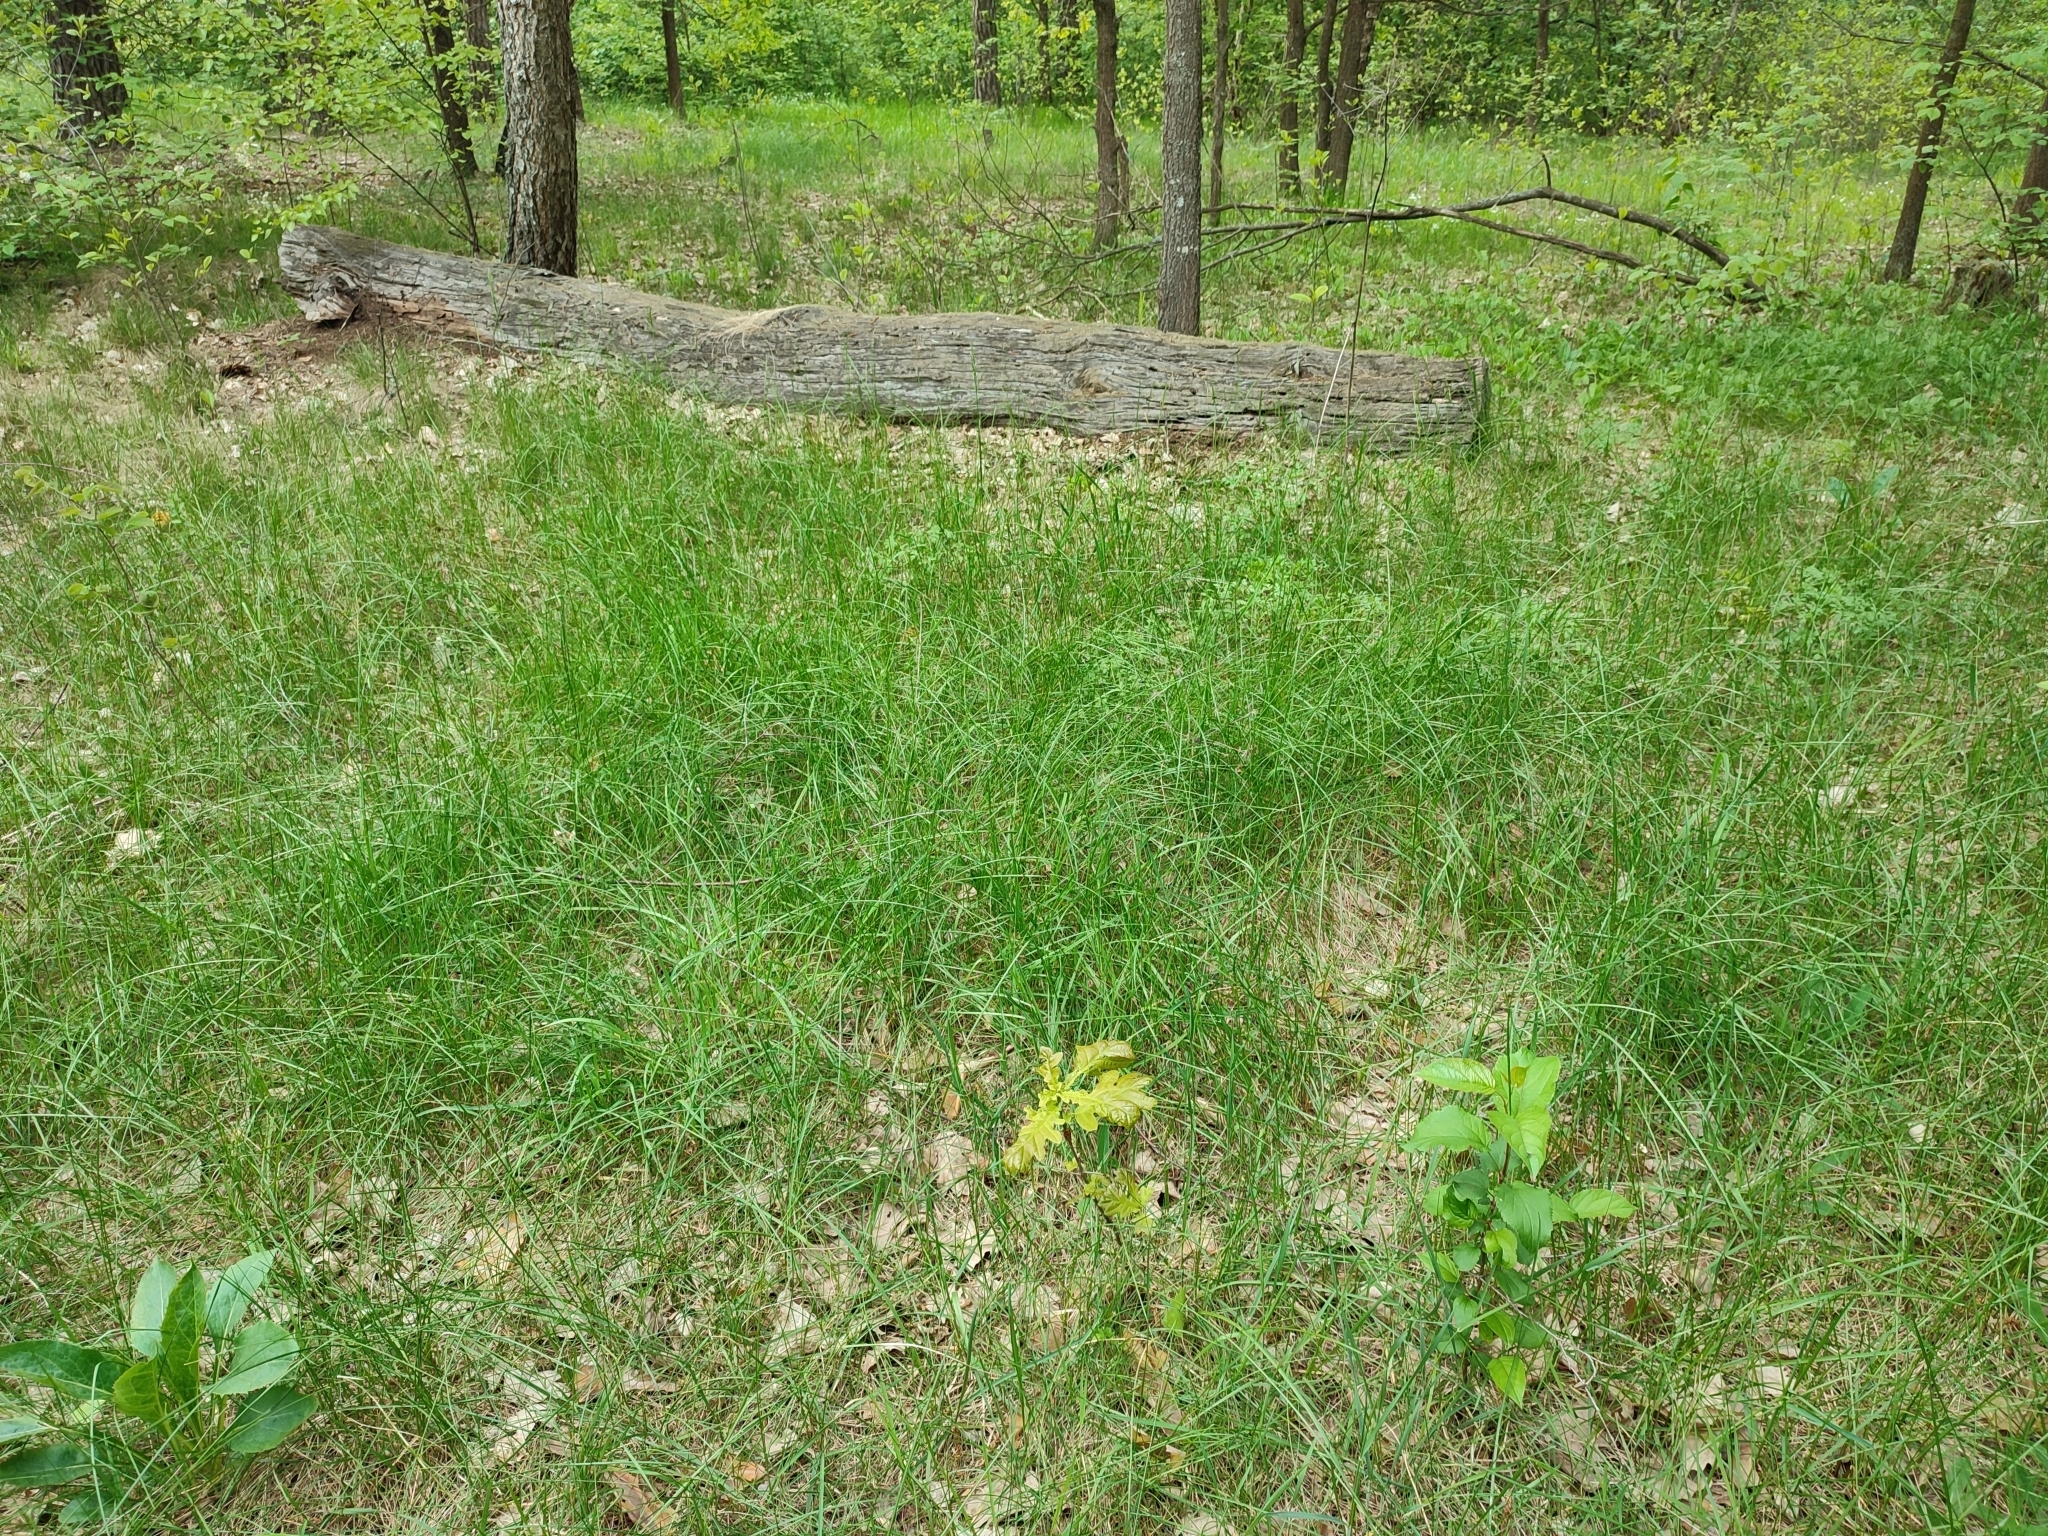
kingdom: Plantae
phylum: Tracheophyta
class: Magnoliopsida
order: Fagales
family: Fagaceae
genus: Quercus
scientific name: Quercus robur
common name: Pedunculate oak
